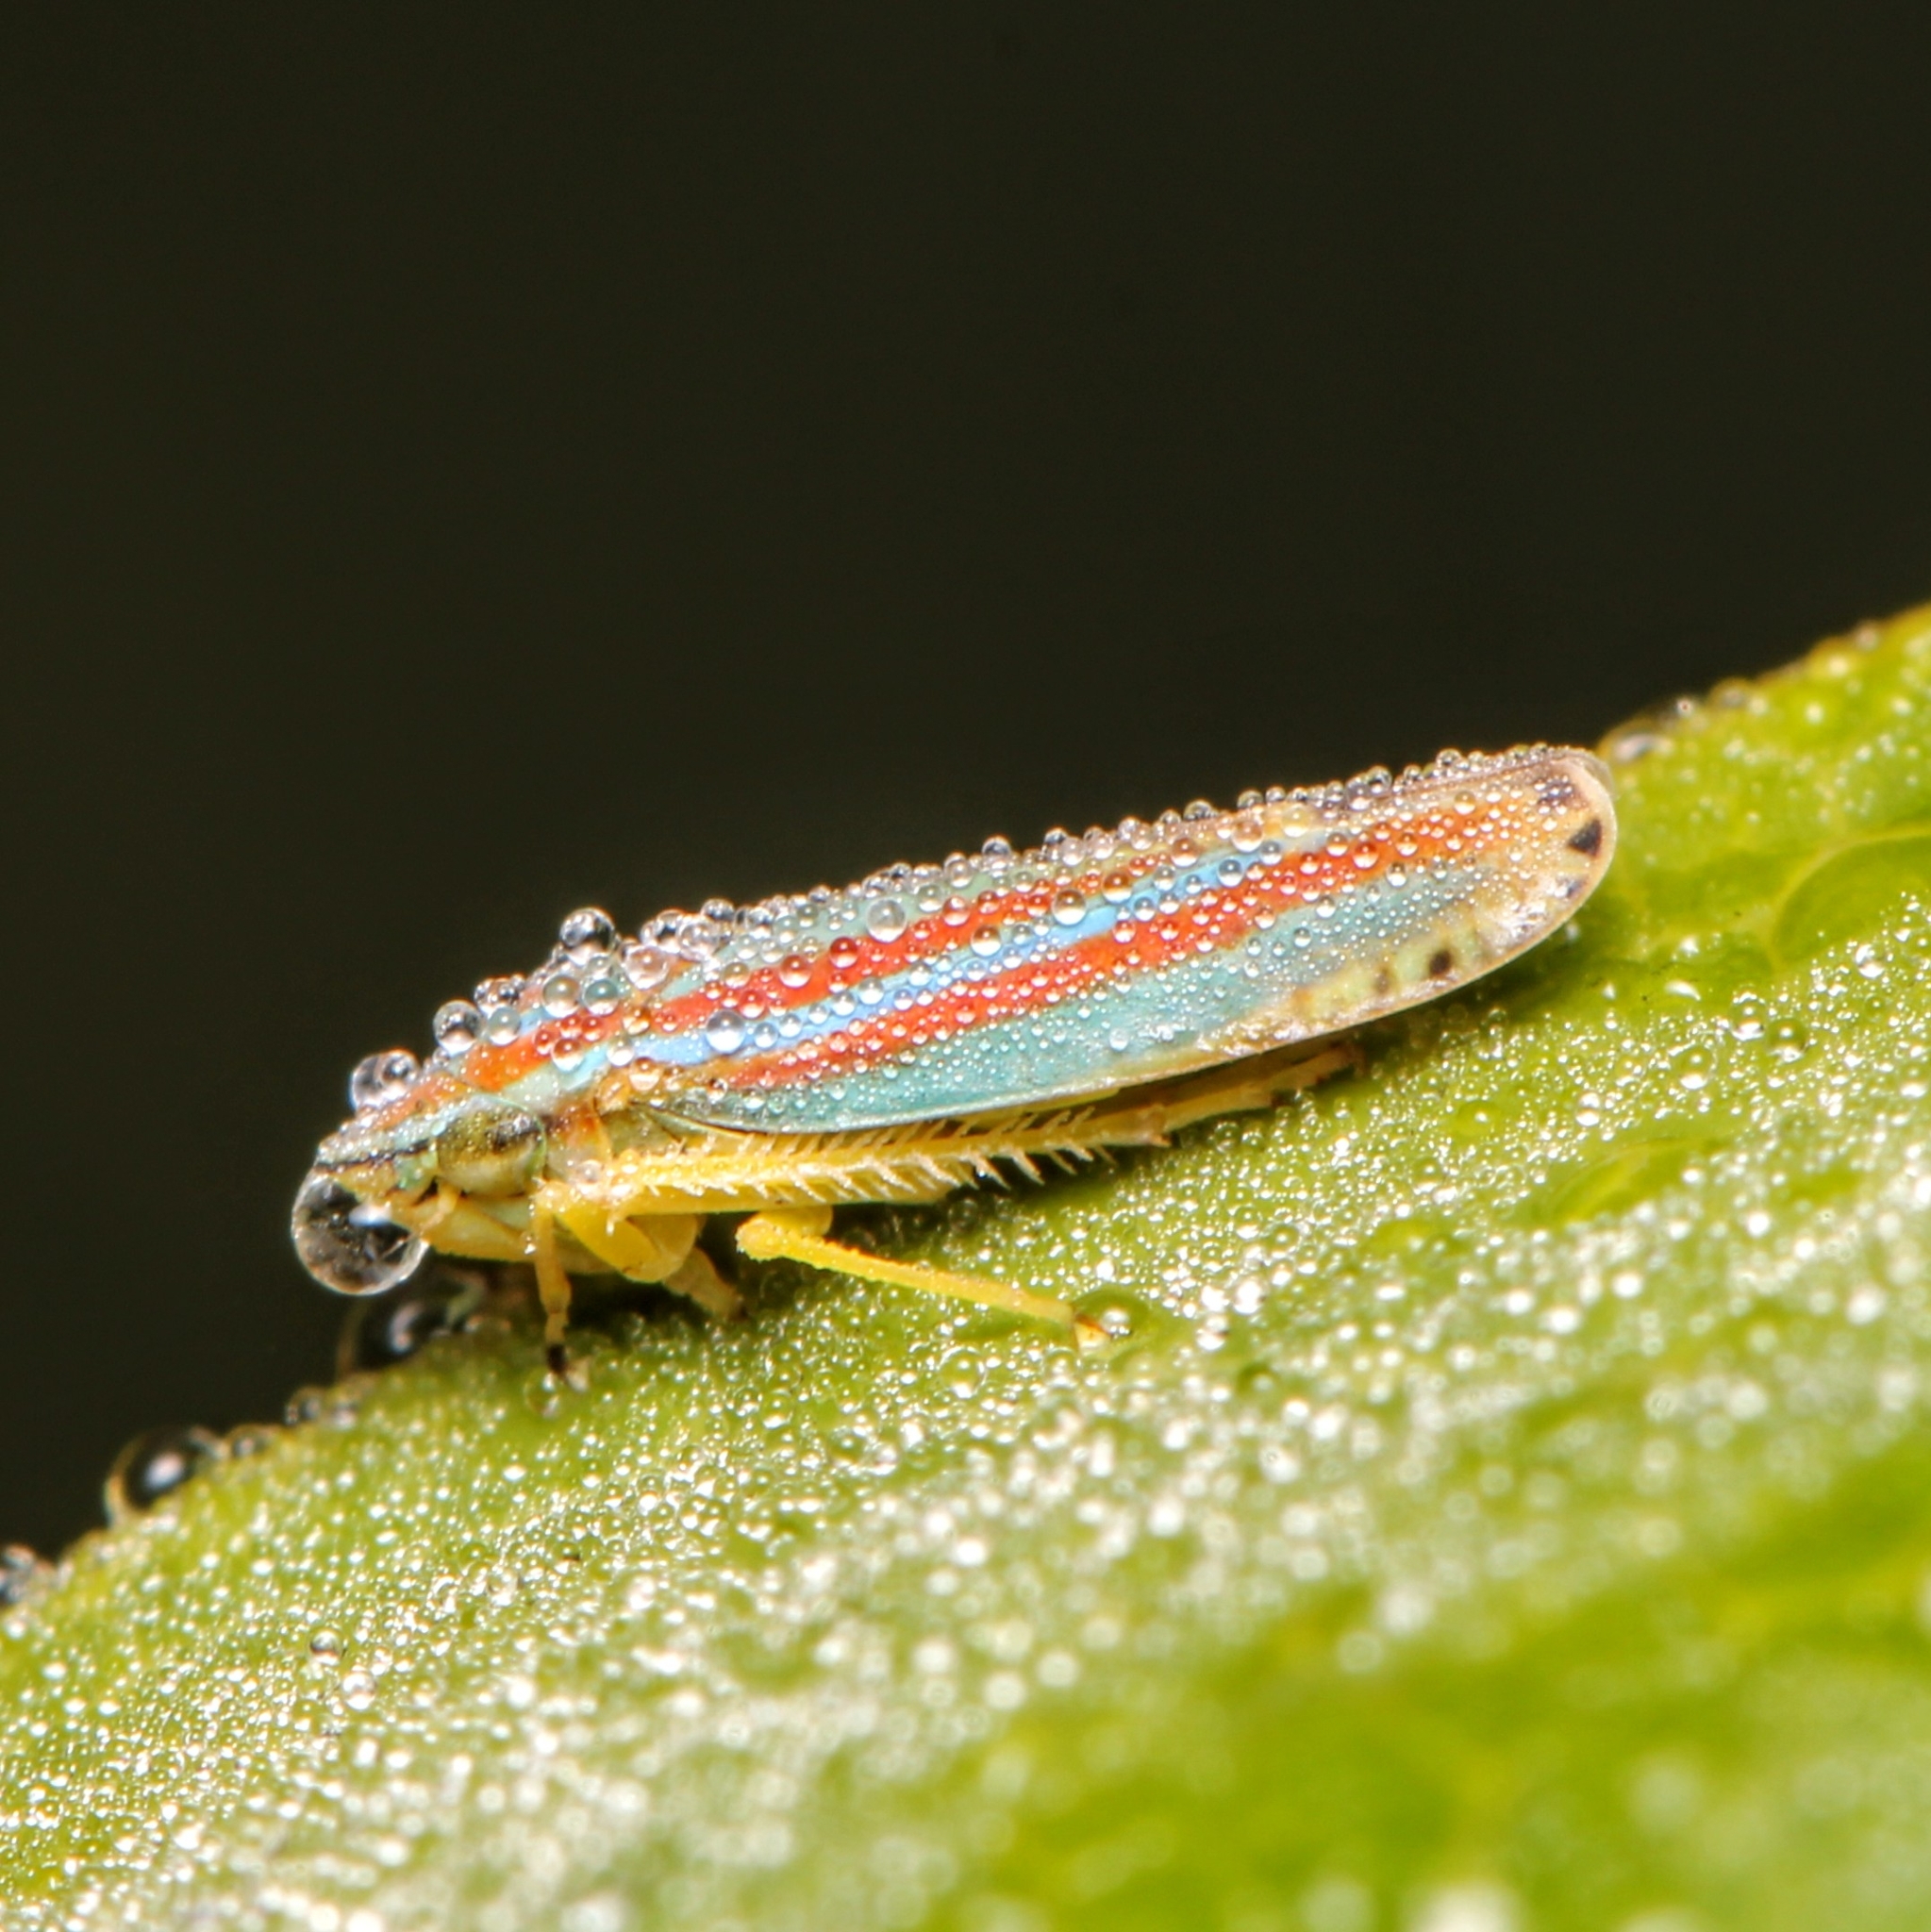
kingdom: Animalia
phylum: Arthropoda
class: Insecta
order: Hemiptera
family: Cicadellidae
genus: Graphocephala
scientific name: Graphocephala versuta
